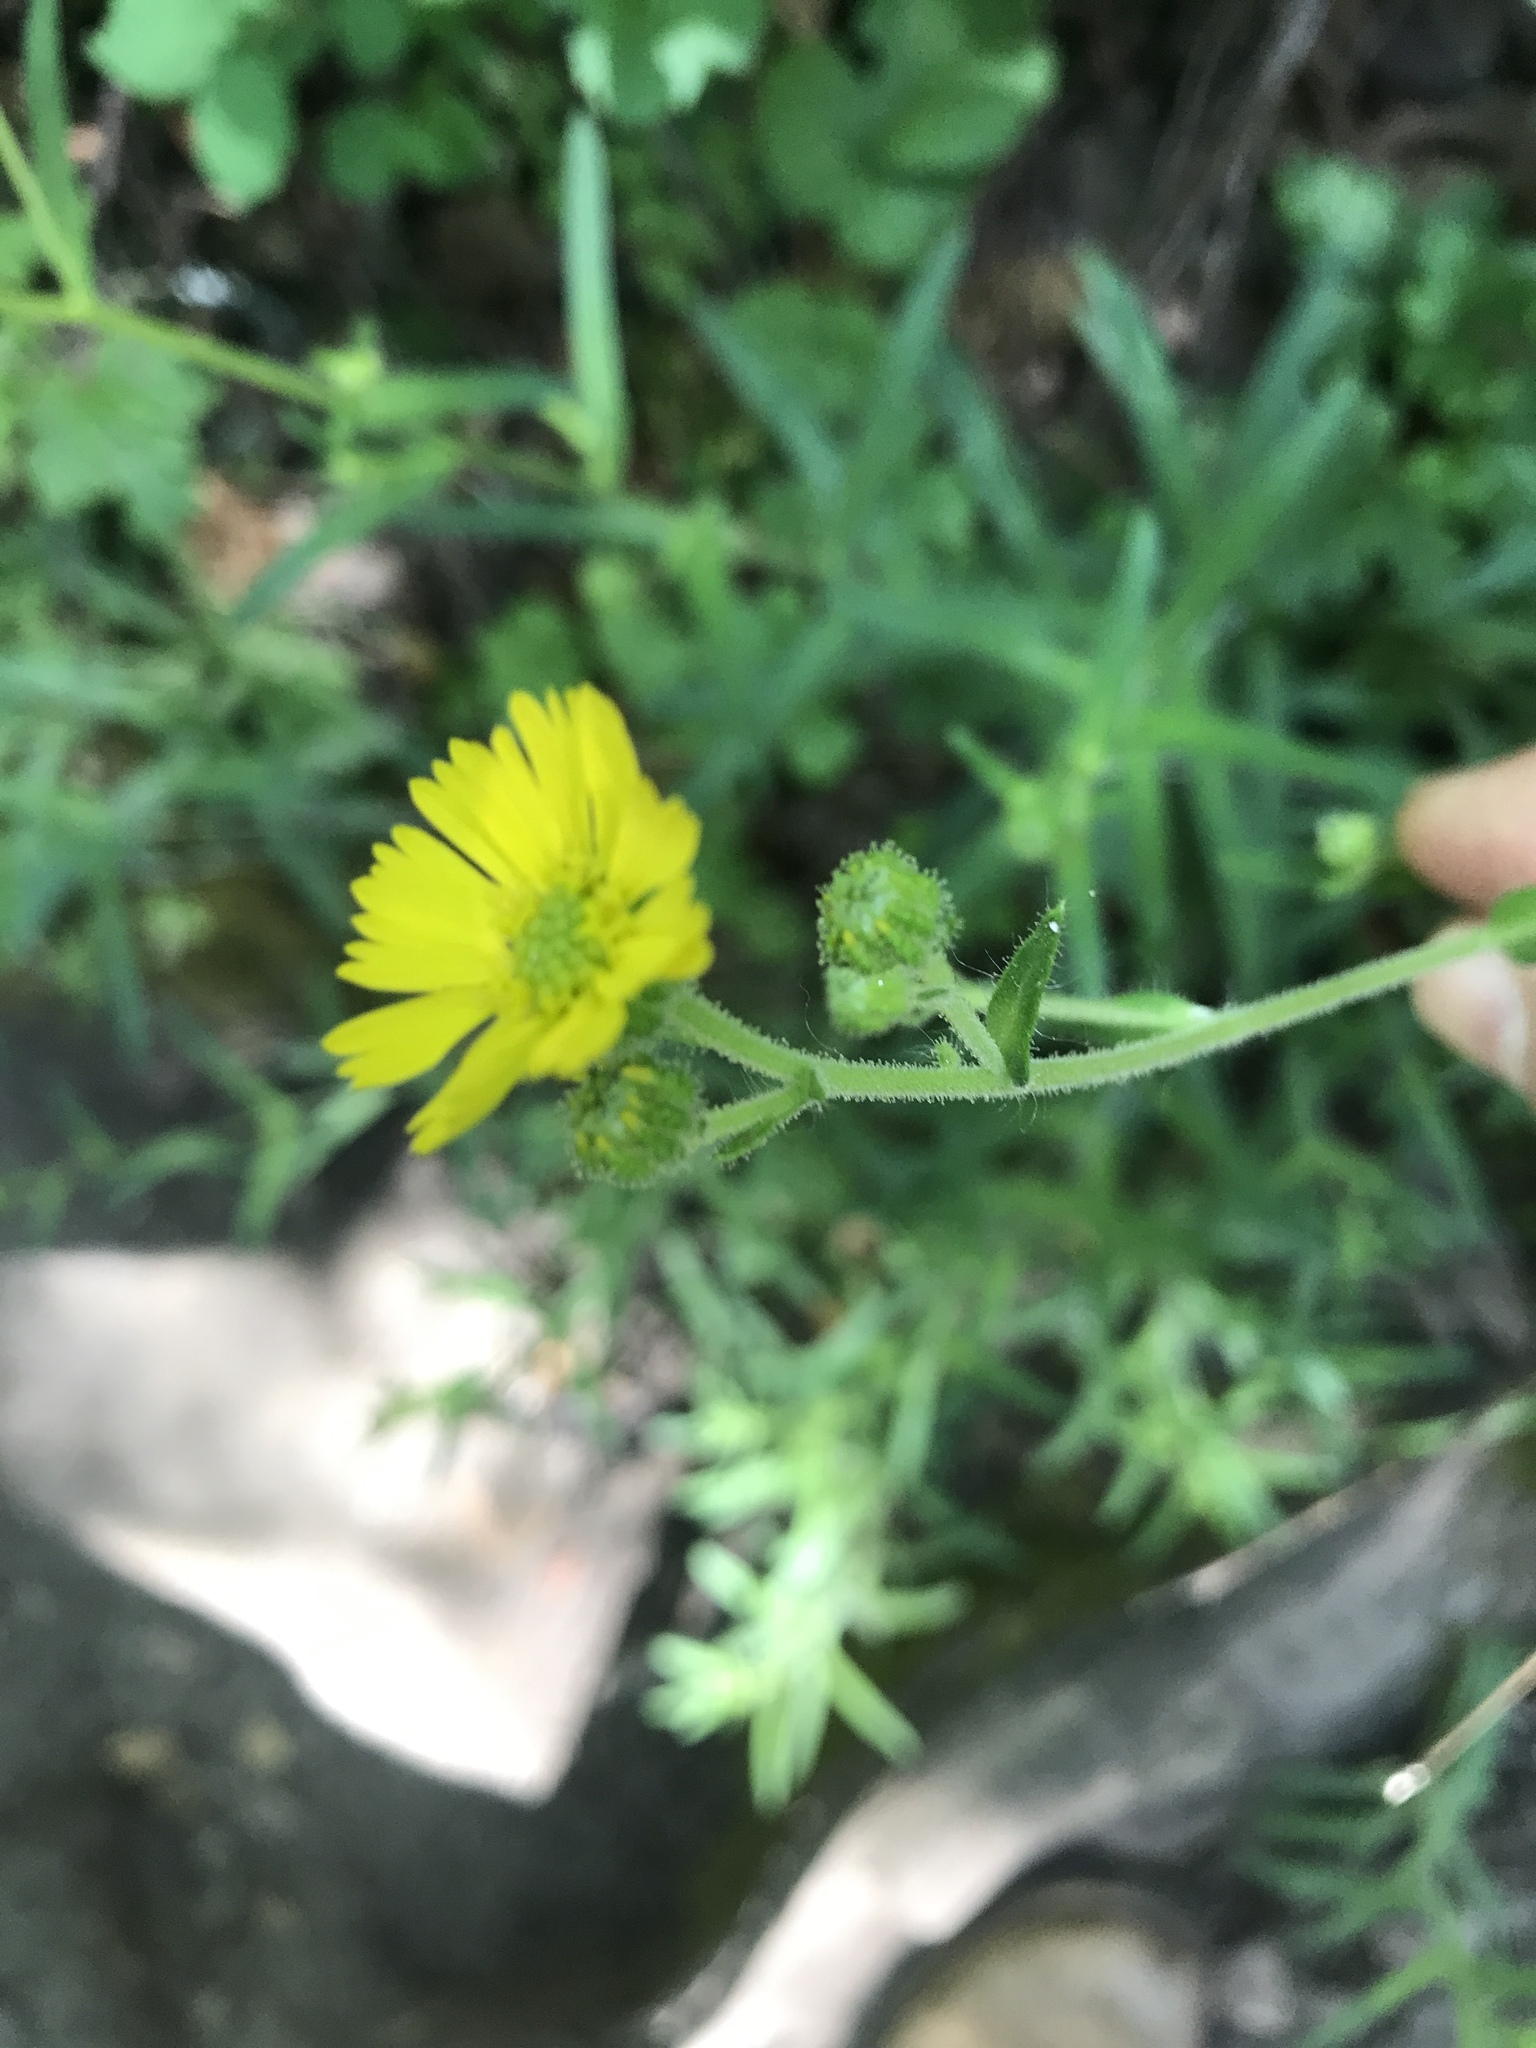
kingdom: Plantae
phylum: Tracheophyta
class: Magnoliopsida
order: Asterales
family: Asteraceae
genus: Anisocarpus
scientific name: Anisocarpus madioides
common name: Woodland madia
